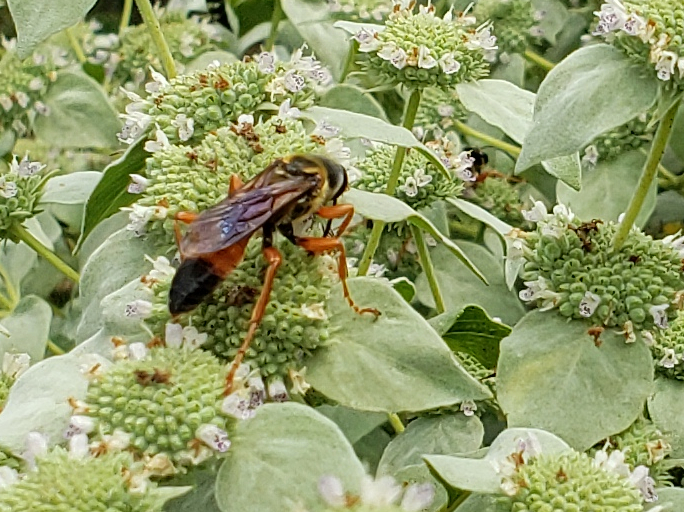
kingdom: Animalia
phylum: Arthropoda
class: Insecta
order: Hymenoptera
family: Sphecidae
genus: Sphex
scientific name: Sphex ichneumoneus
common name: Great golden digger wasp
